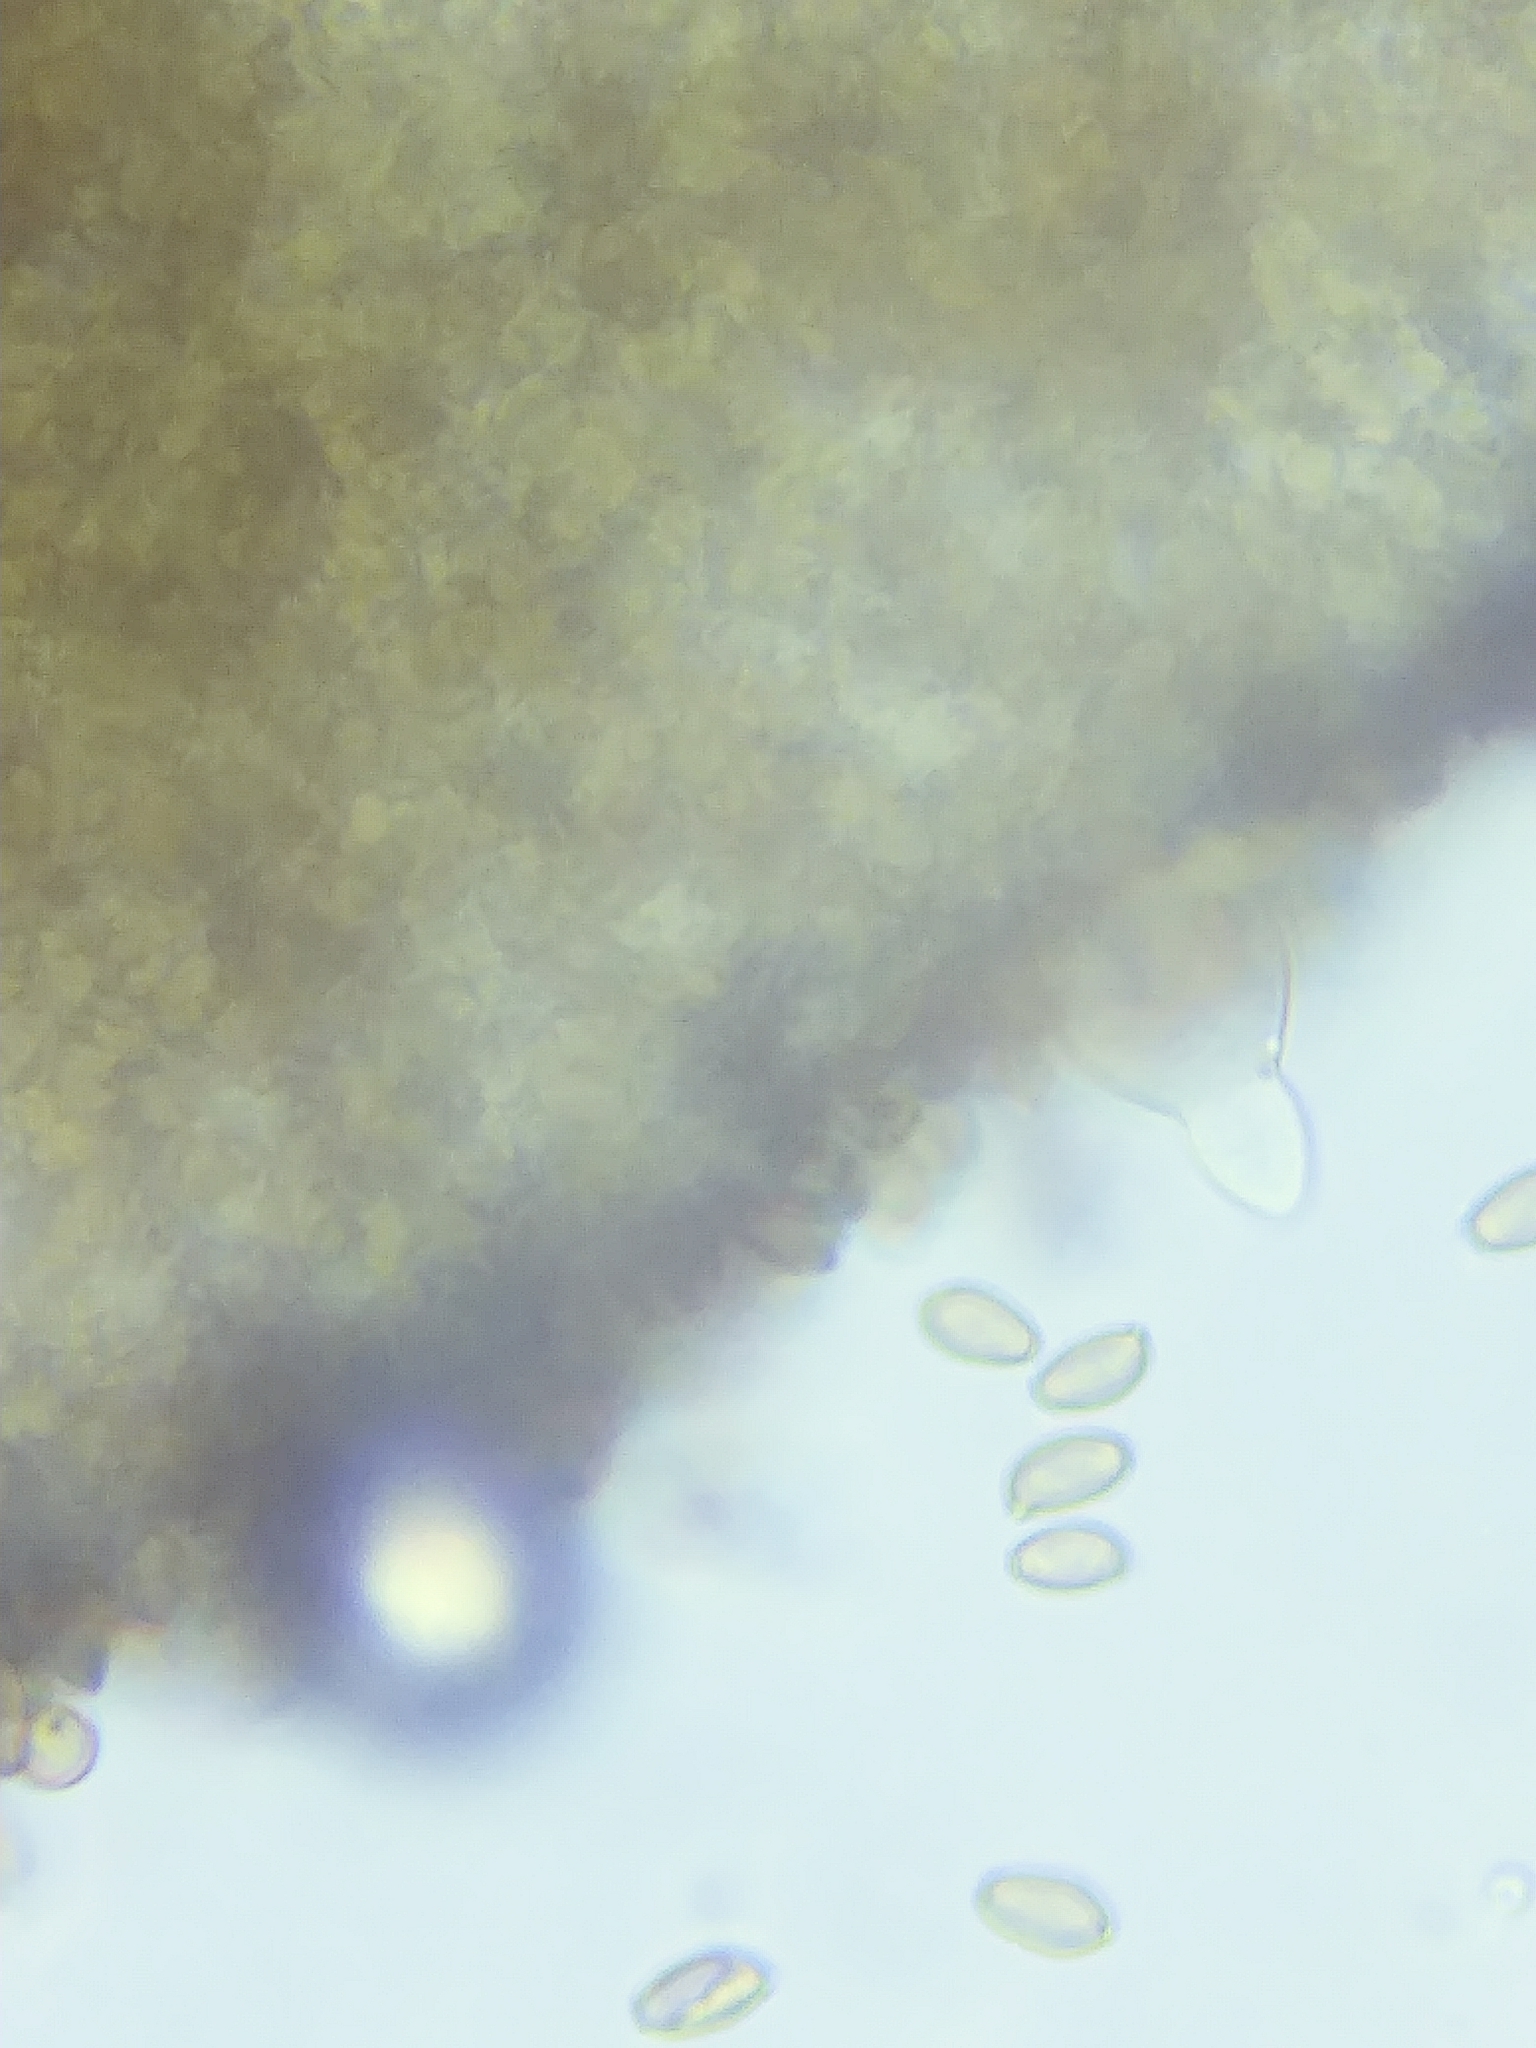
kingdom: Fungi
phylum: Basidiomycota
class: Agaricomycetes
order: Agaricales
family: Strophariaceae
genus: Agrocybe
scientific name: Agrocybe acericola
